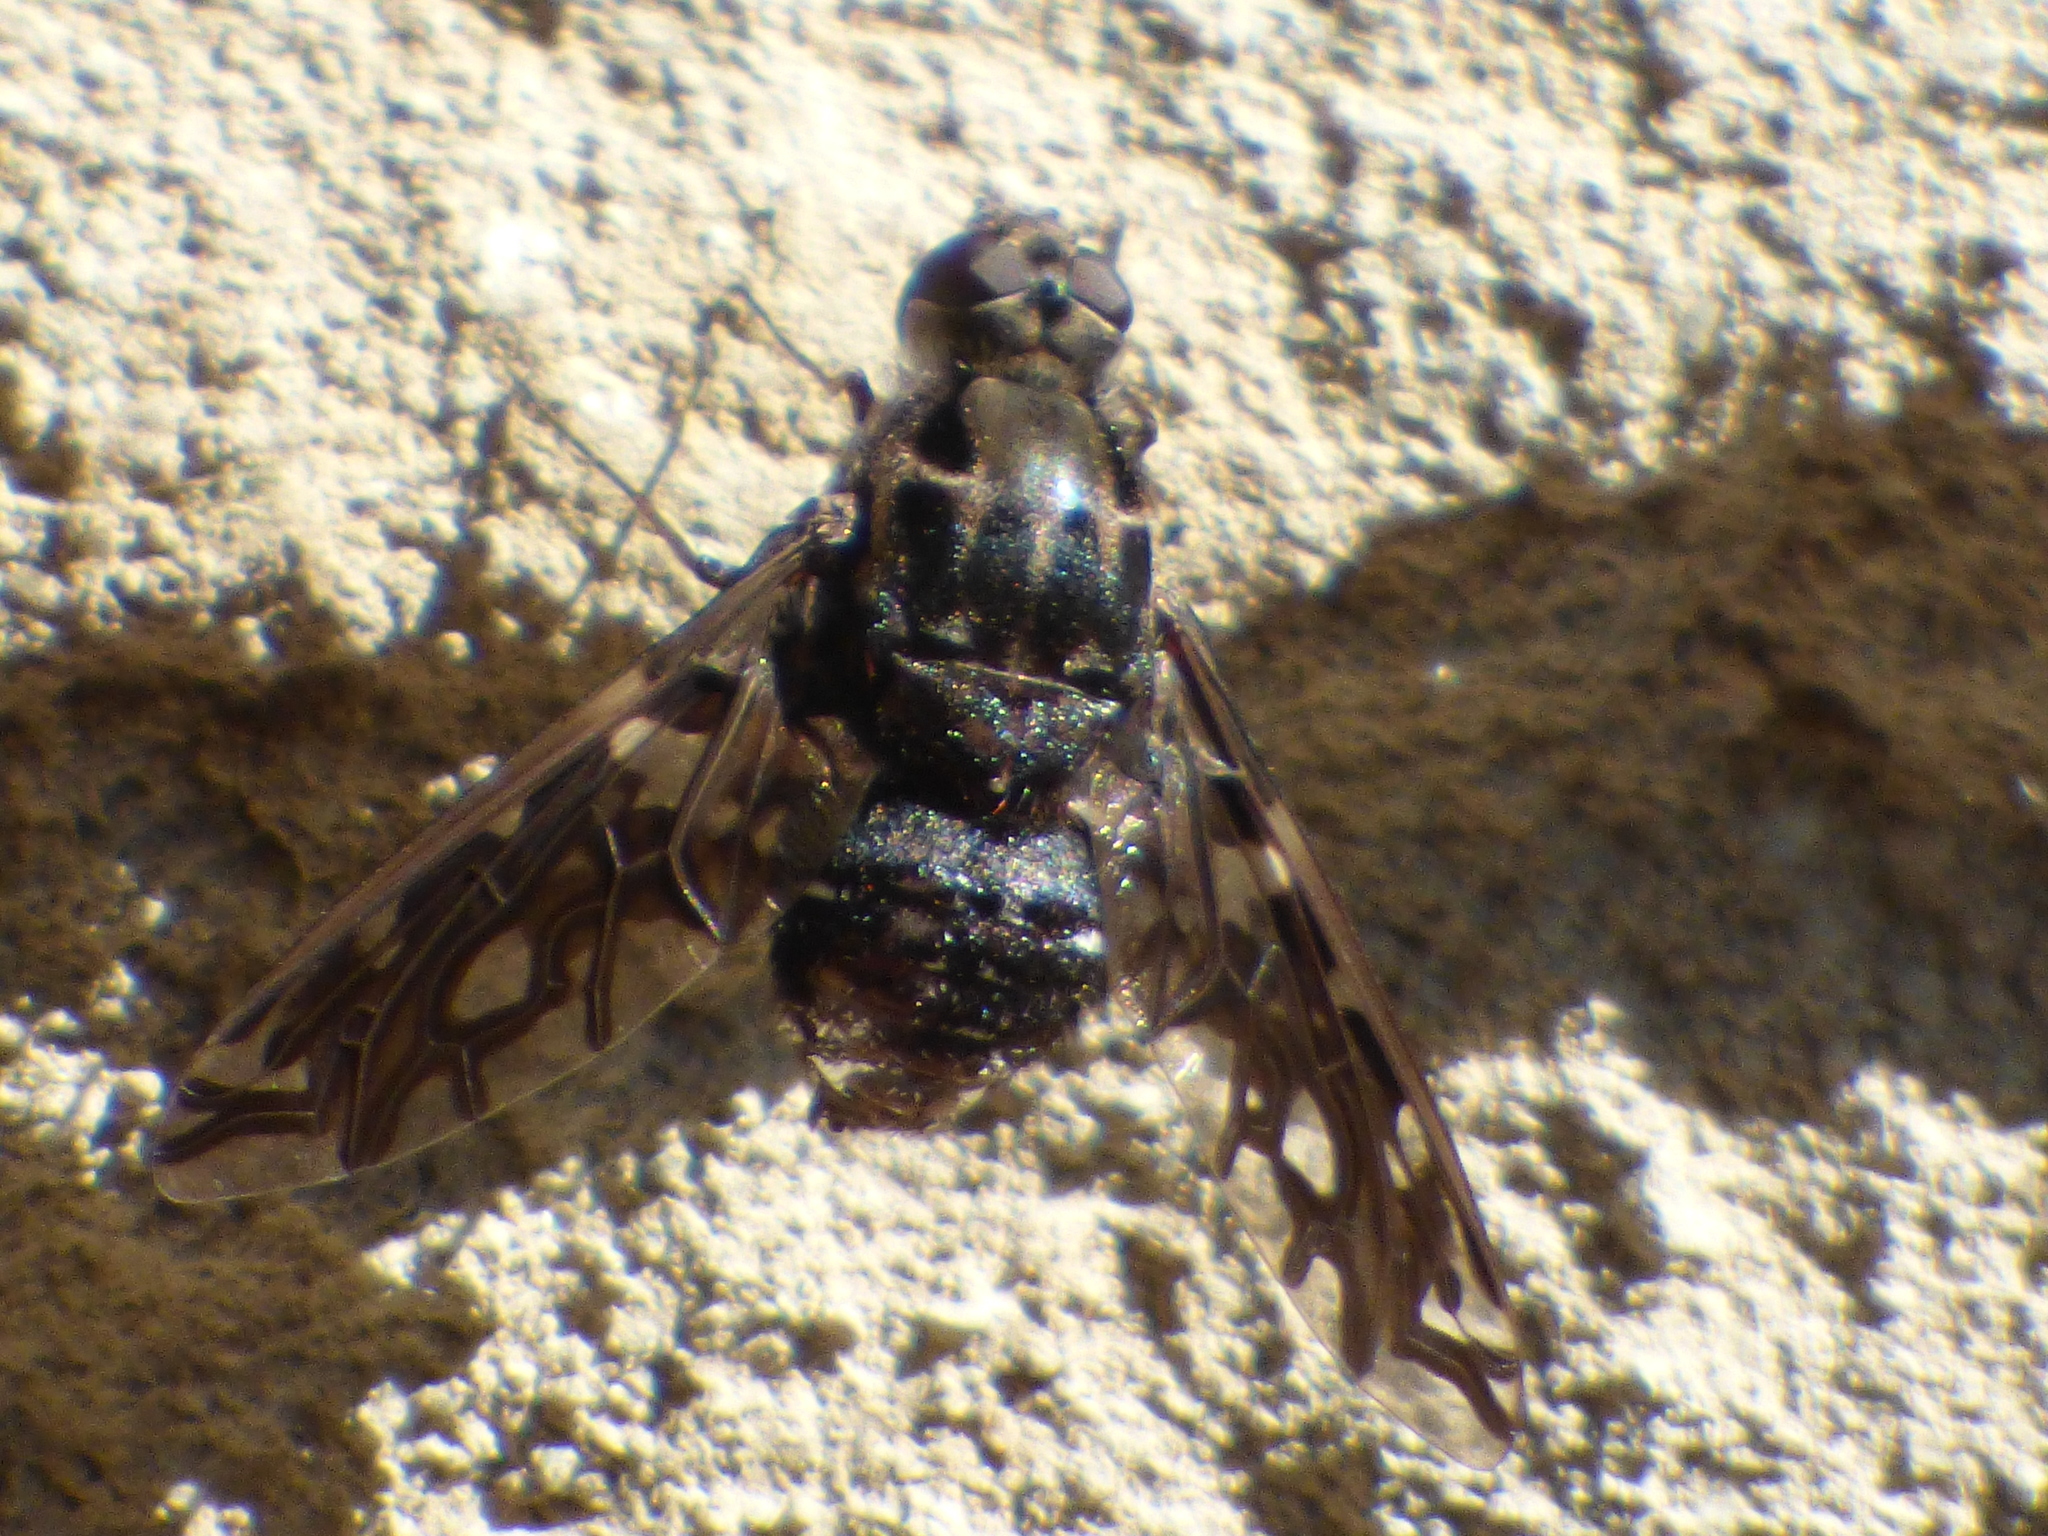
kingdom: Animalia
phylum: Arthropoda
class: Insecta
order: Diptera
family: Bombyliidae
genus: Xenox
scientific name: Xenox tigrinus
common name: Tiger bee fly
